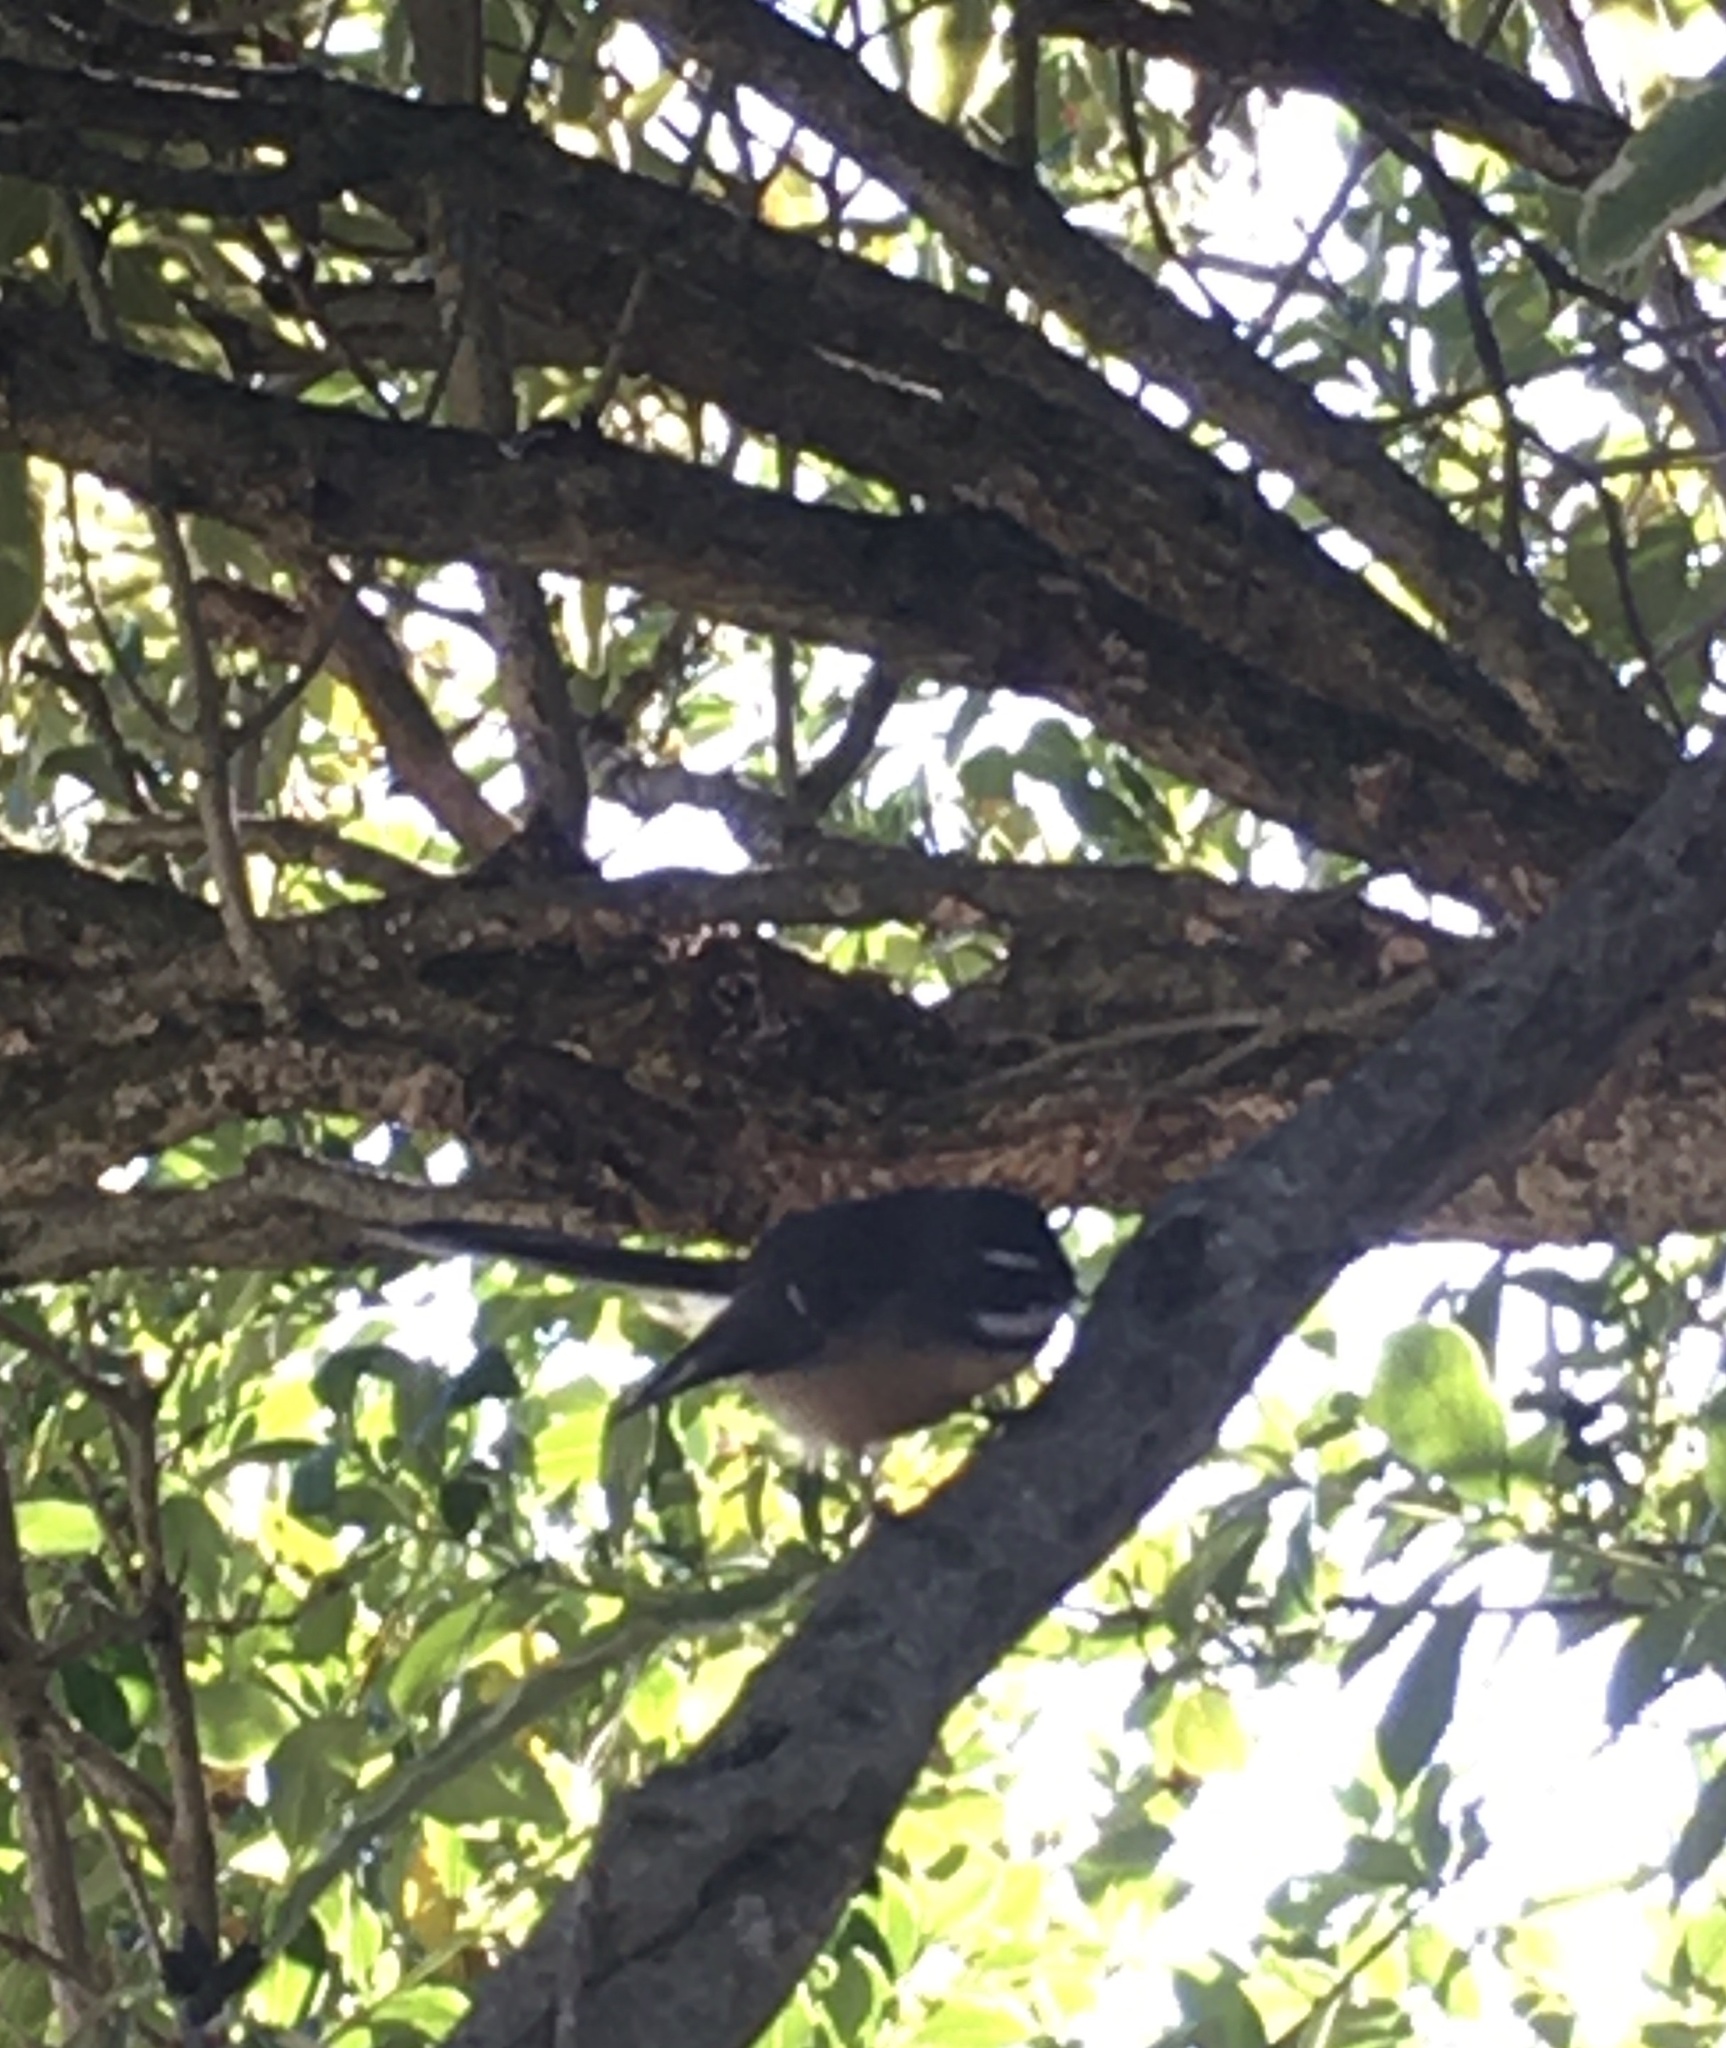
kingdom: Animalia
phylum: Chordata
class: Aves
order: Passeriformes
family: Rhipiduridae
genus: Rhipidura
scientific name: Rhipidura fuliginosa
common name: New zealand fantail
